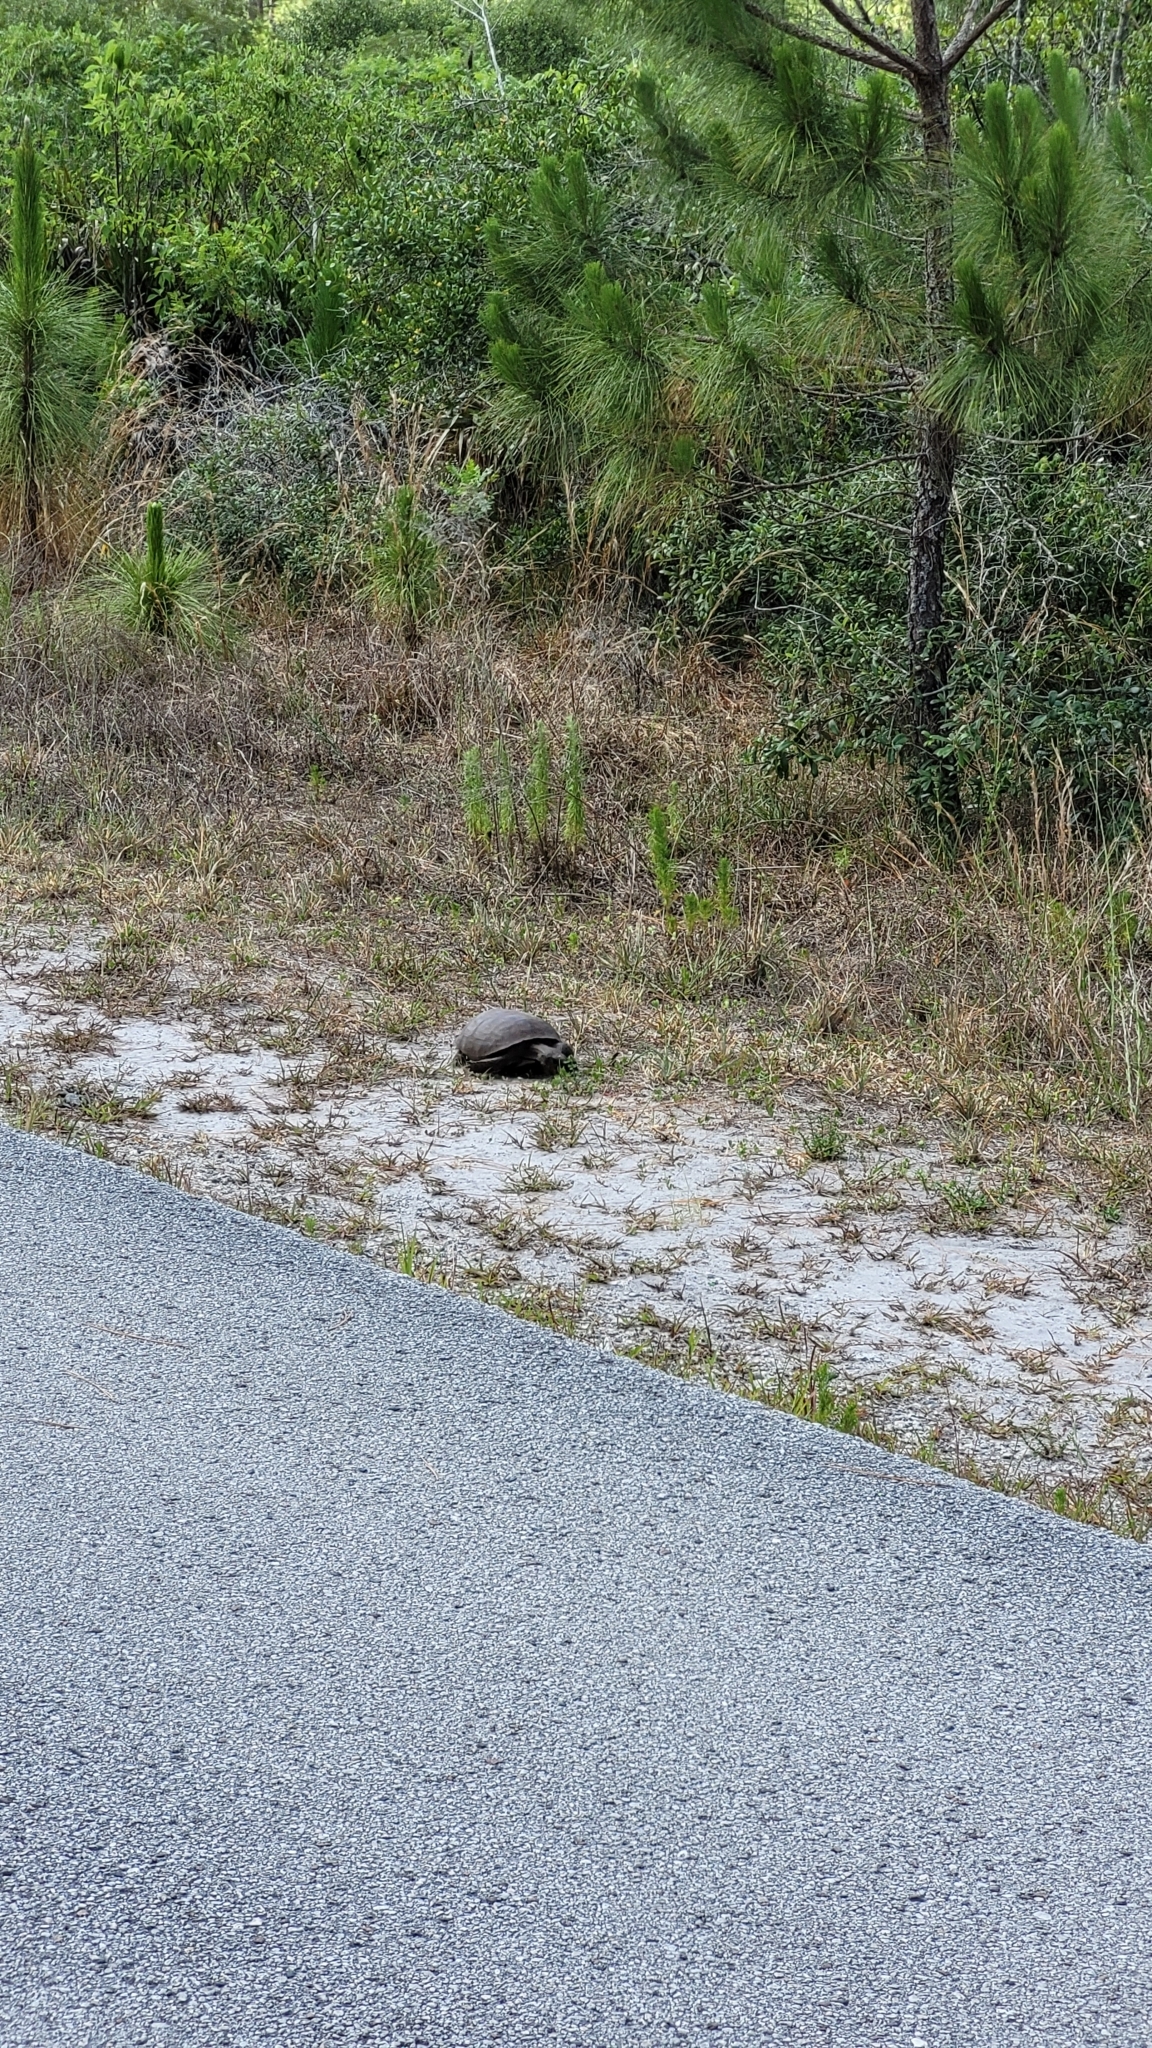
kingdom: Animalia
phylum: Chordata
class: Testudines
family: Testudinidae
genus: Gopherus
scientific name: Gopherus polyphemus
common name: Florida gopher tortoise
